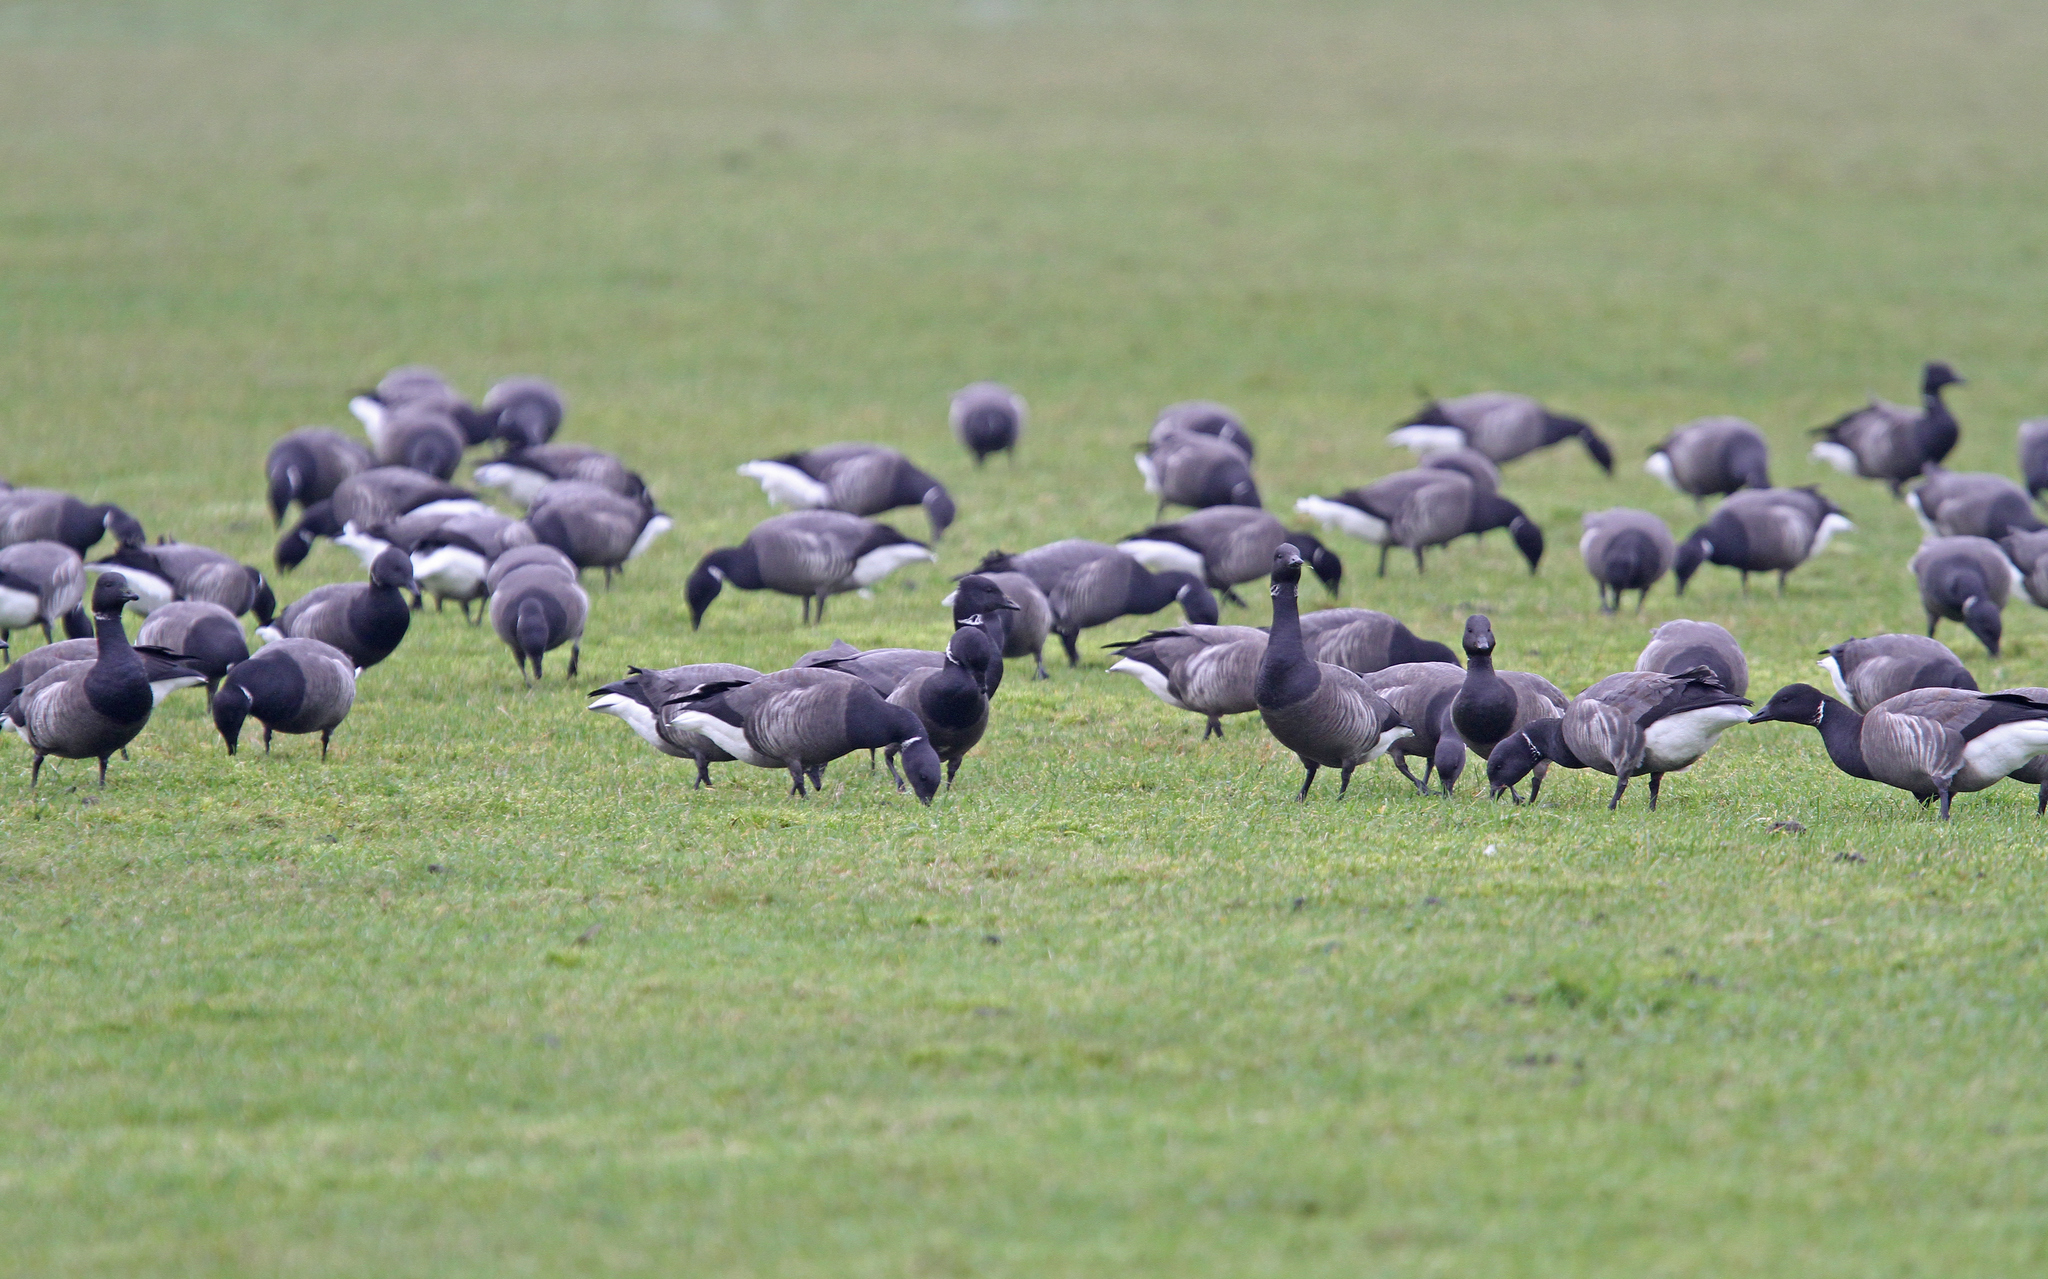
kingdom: Animalia
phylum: Chordata
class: Aves
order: Anseriformes
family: Anatidae
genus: Branta
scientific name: Branta bernicla
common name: Brant goose
